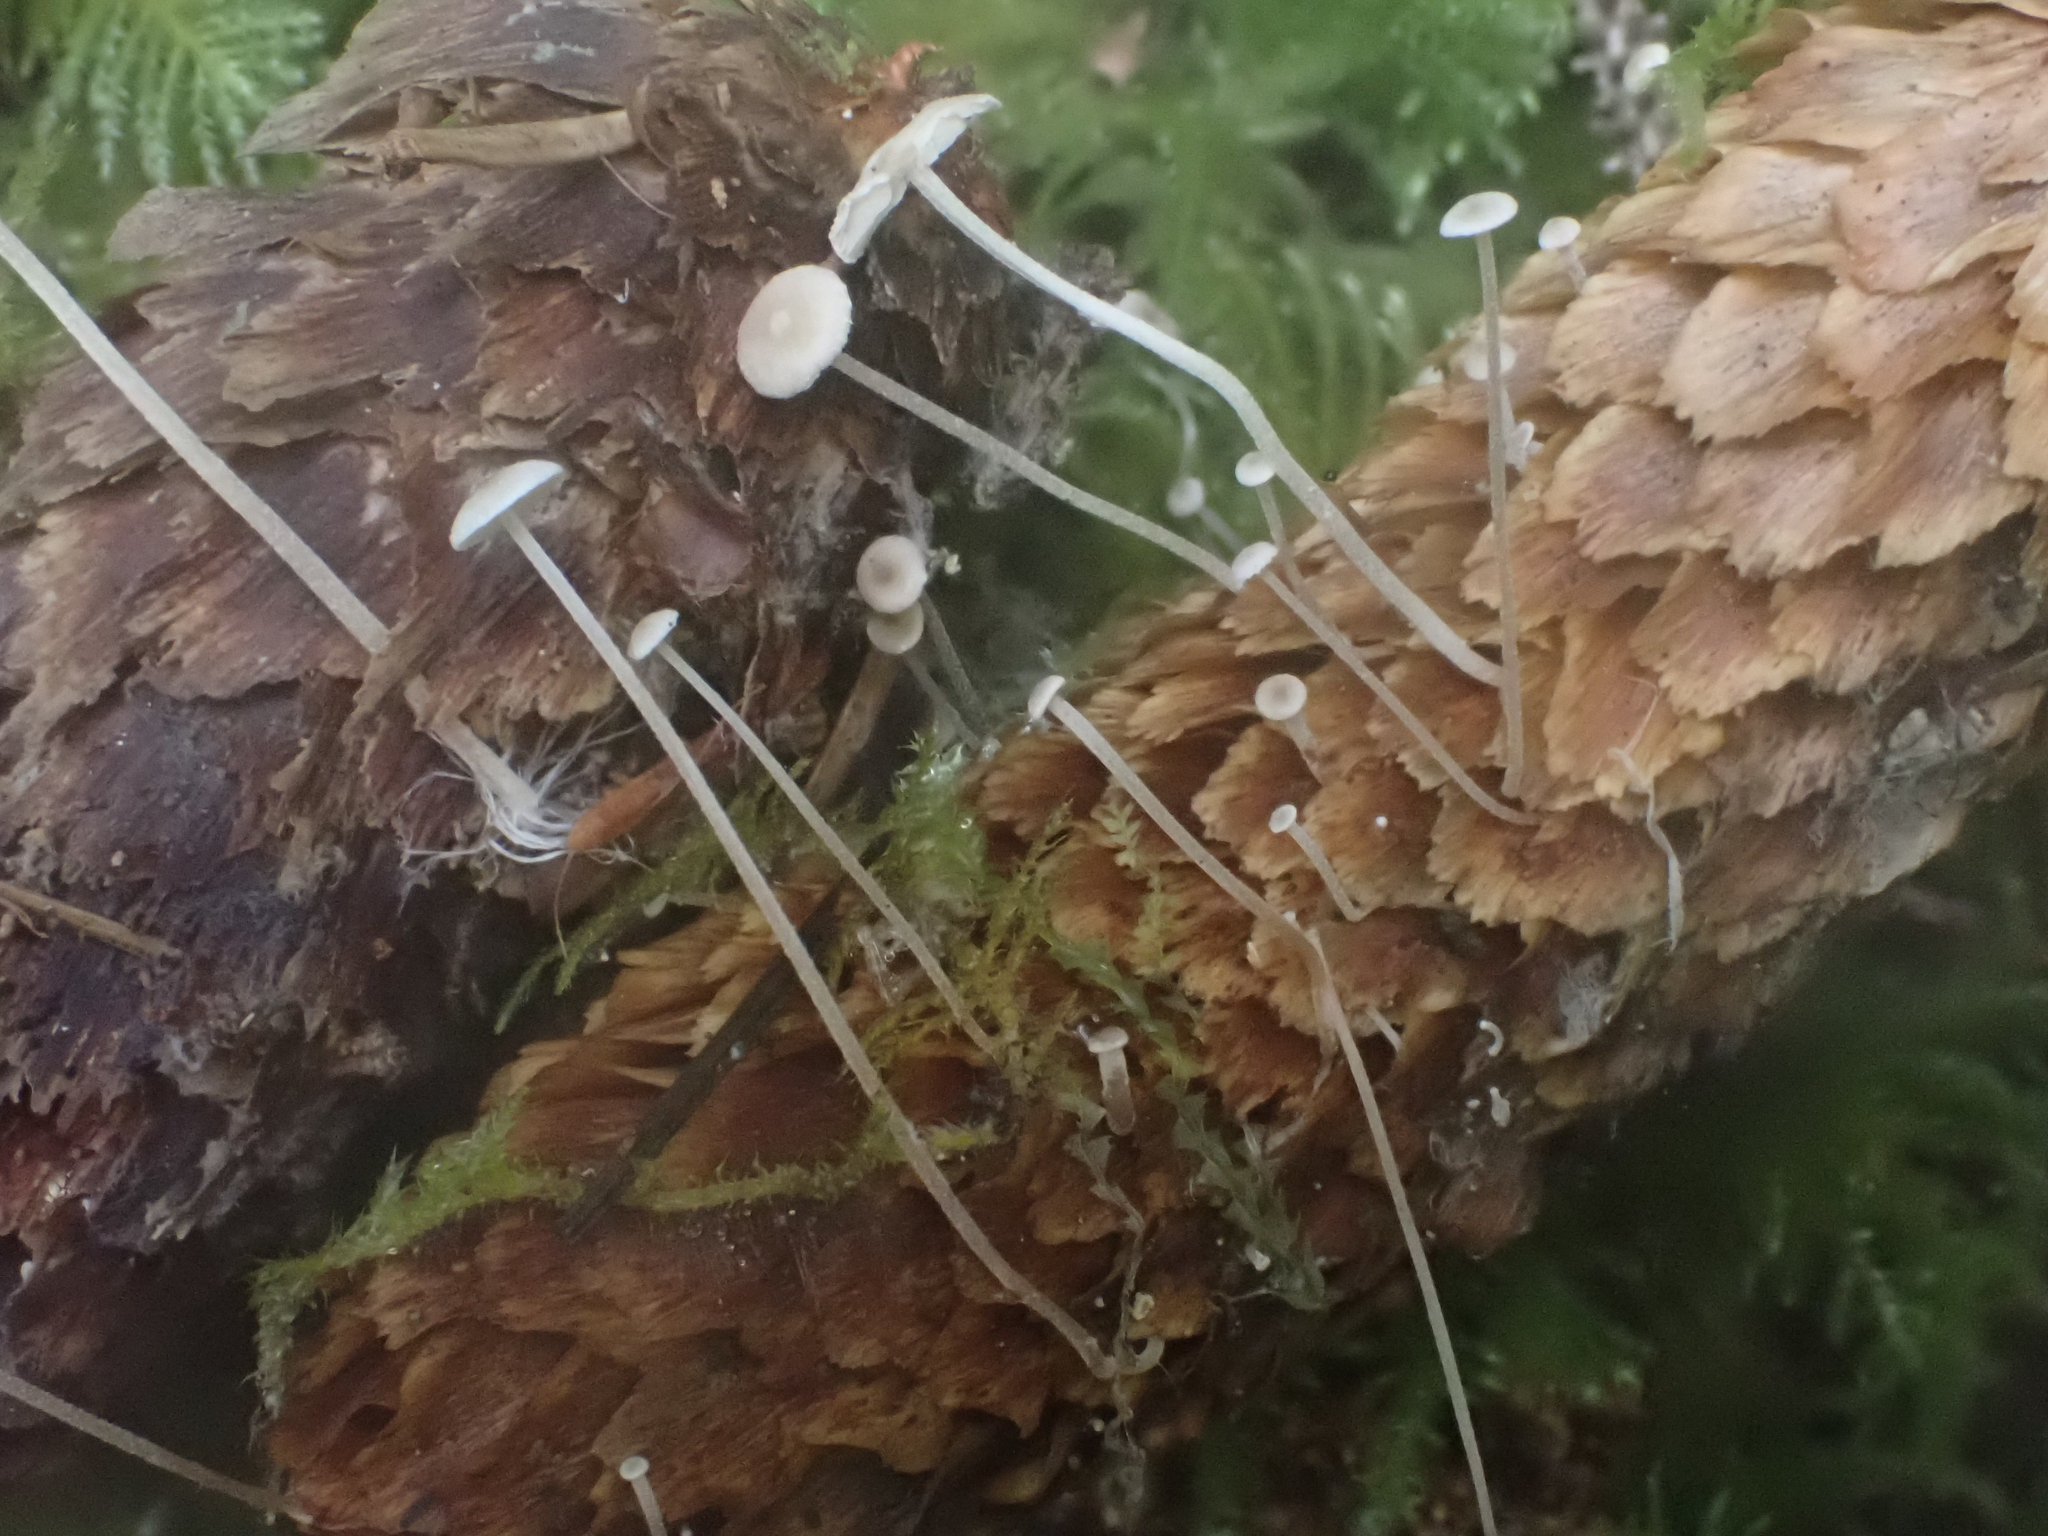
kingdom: Fungi
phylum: Basidiomycota
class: Agaricomycetes
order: Agaricales
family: Marasmiaceae
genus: Baeospora
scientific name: Baeospora myosura
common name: Conifercone cap
